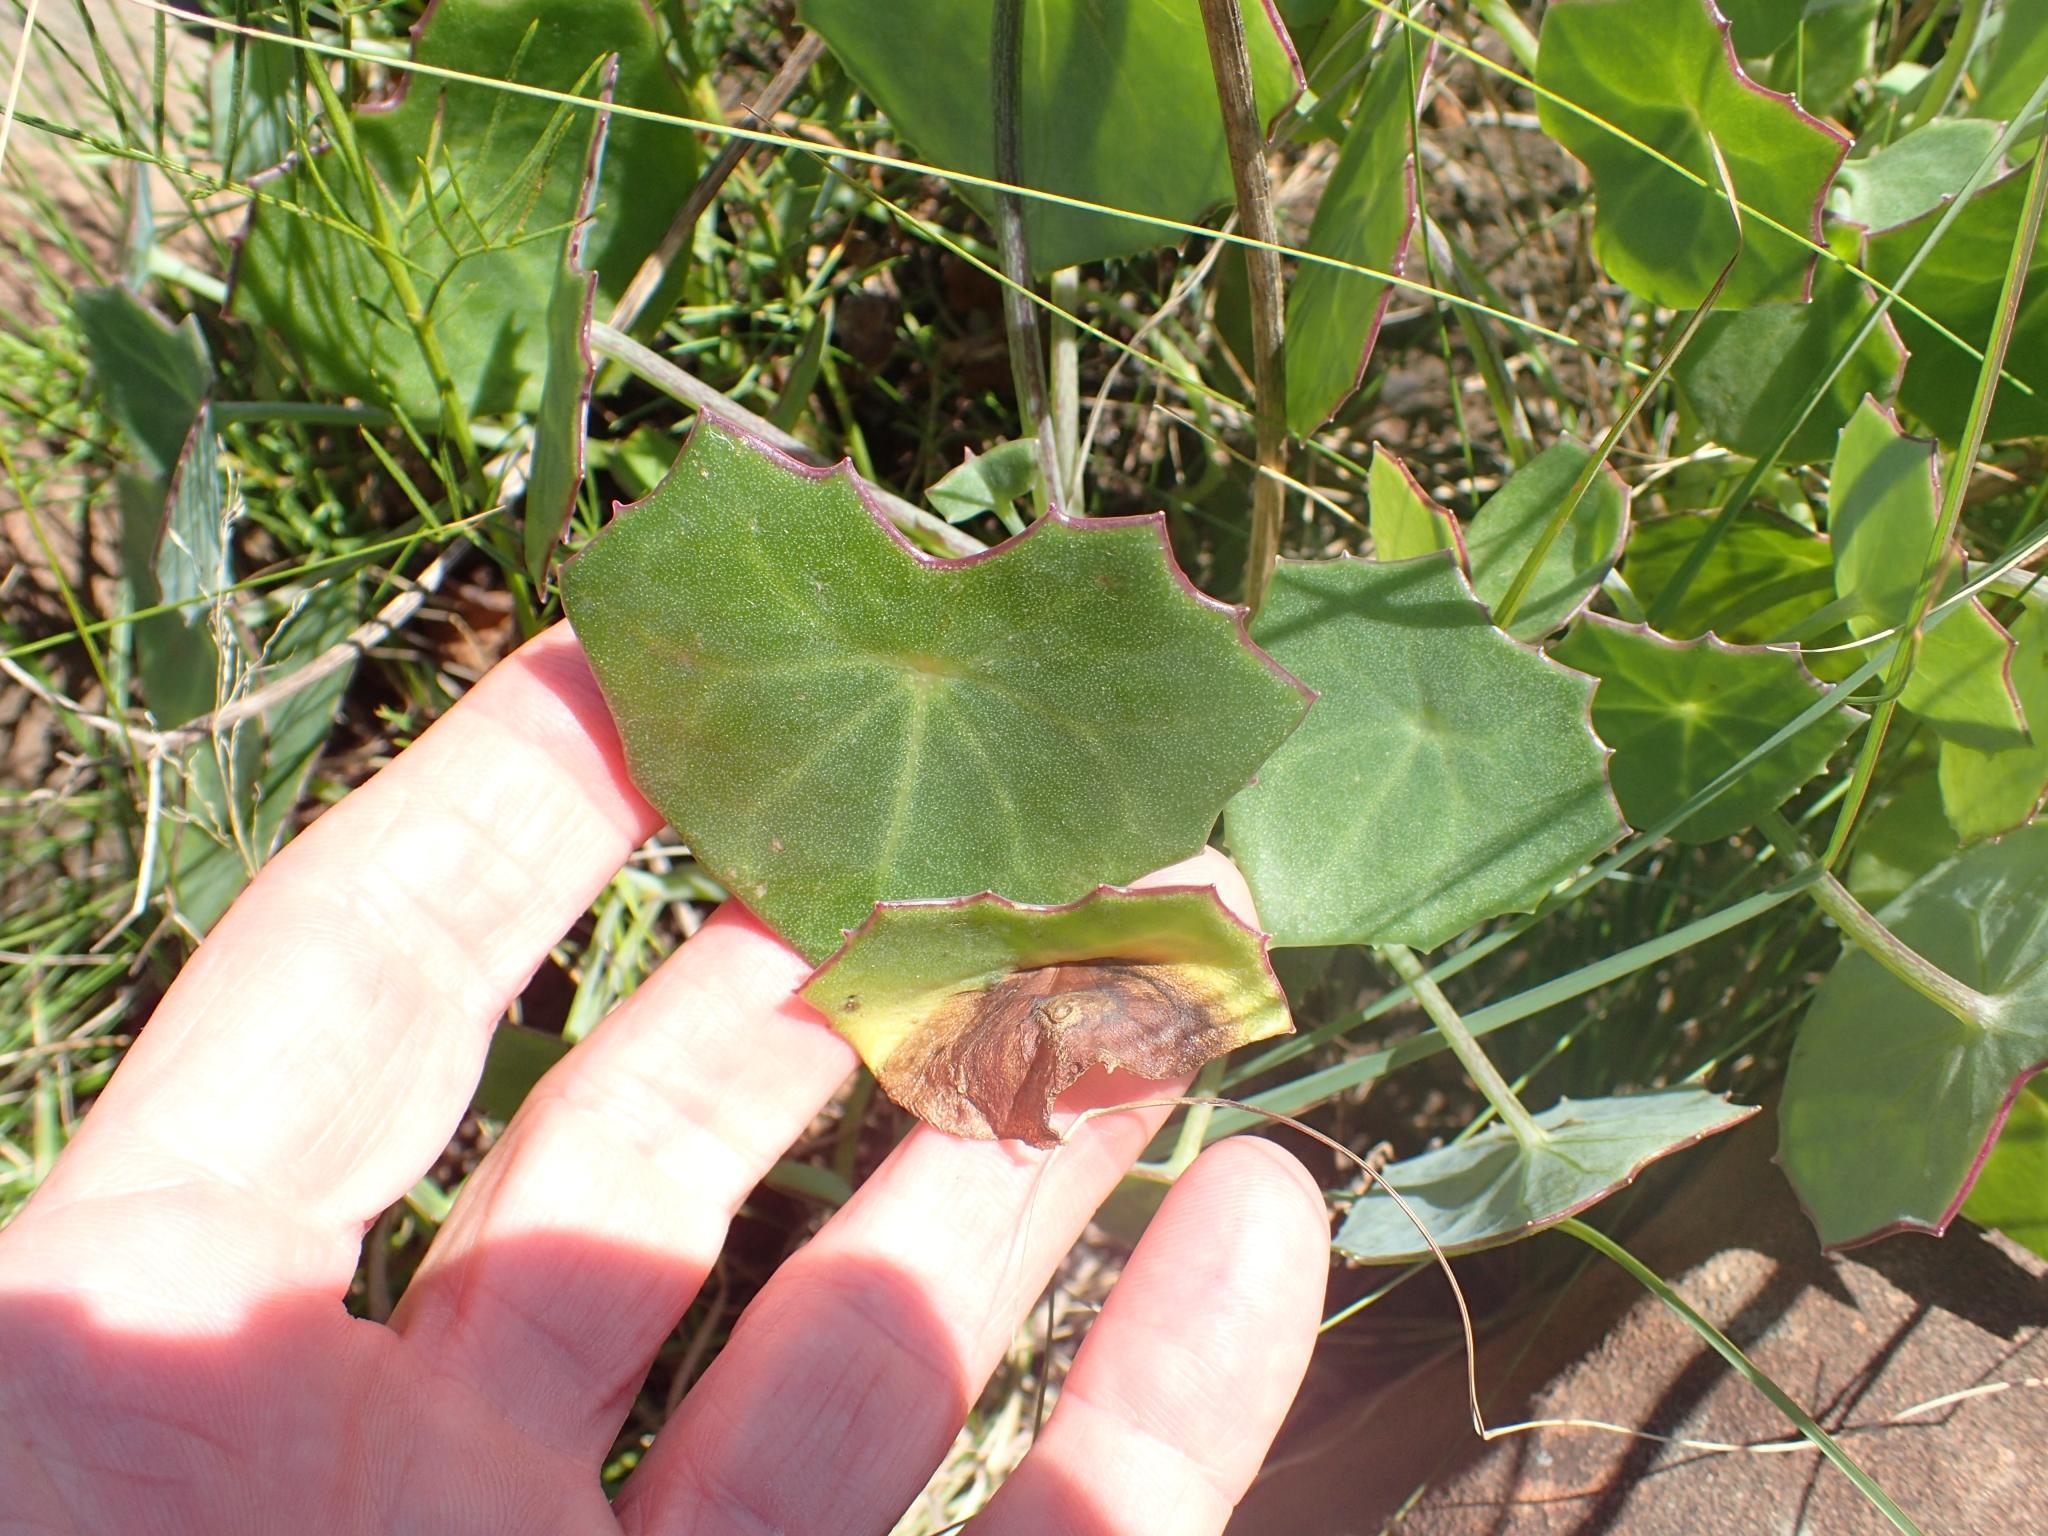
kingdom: Plantae
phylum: Tracheophyta
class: Magnoliopsida
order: Asterales
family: Asteraceae
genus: Senecio
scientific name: Senecio oxyriifolius
